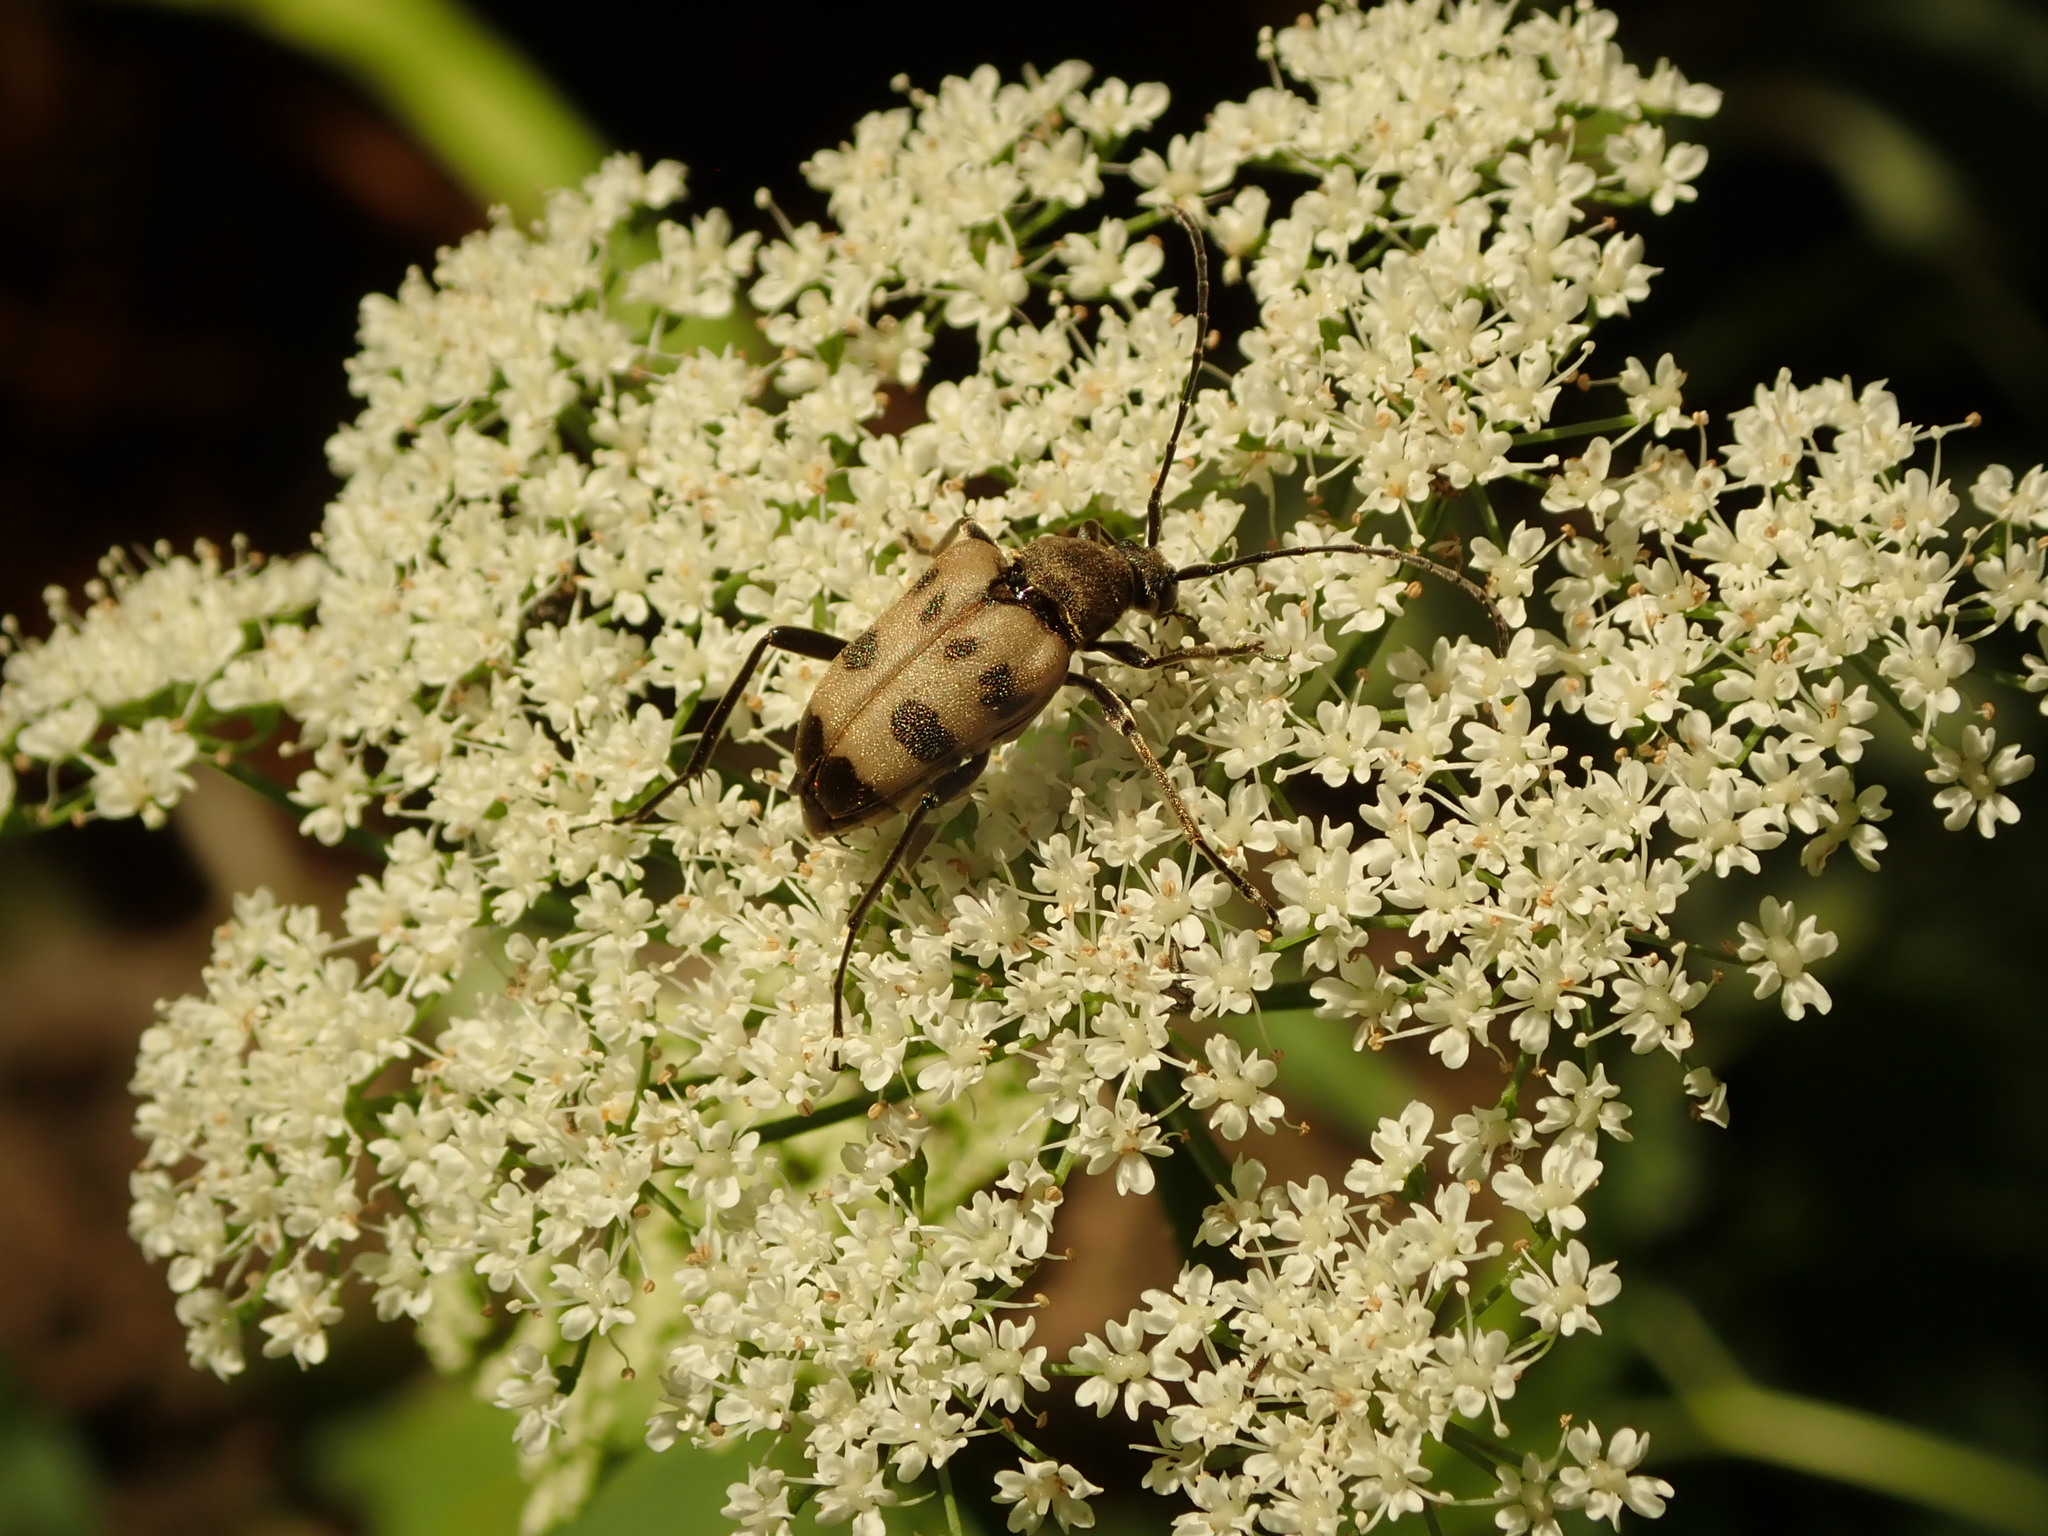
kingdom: Animalia
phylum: Arthropoda
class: Insecta
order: Coleoptera
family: Cerambycidae
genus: Pachytodes
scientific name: Pachytodes cerambyciformis
